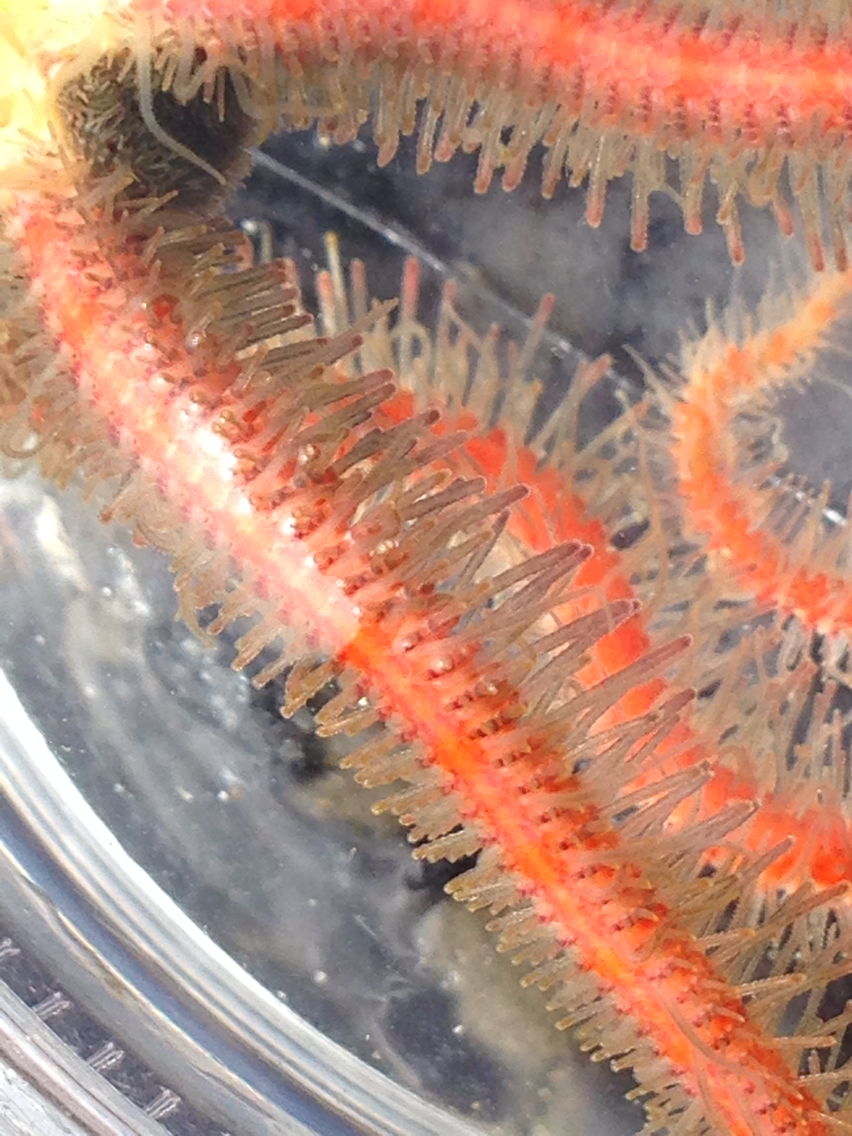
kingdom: Animalia
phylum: Echinodermata
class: Ophiuroidea
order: Amphilepidida
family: Ophiotrichidae
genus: Ophiothrix
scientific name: Ophiothrix spiculata
